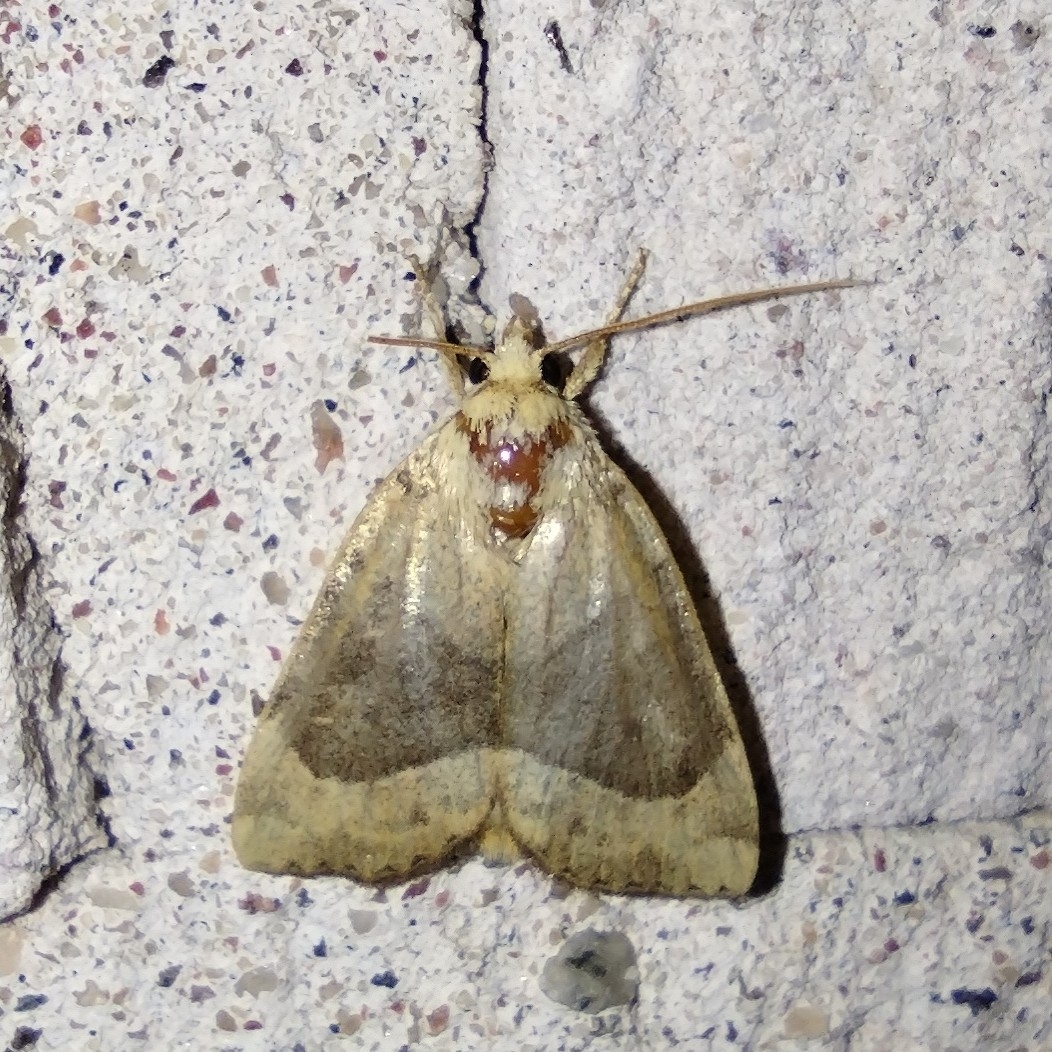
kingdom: Animalia
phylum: Arthropoda
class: Insecta
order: Lepidoptera
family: Noctuidae
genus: Cosmia
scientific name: Cosmia trapezina
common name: Dun-bar
